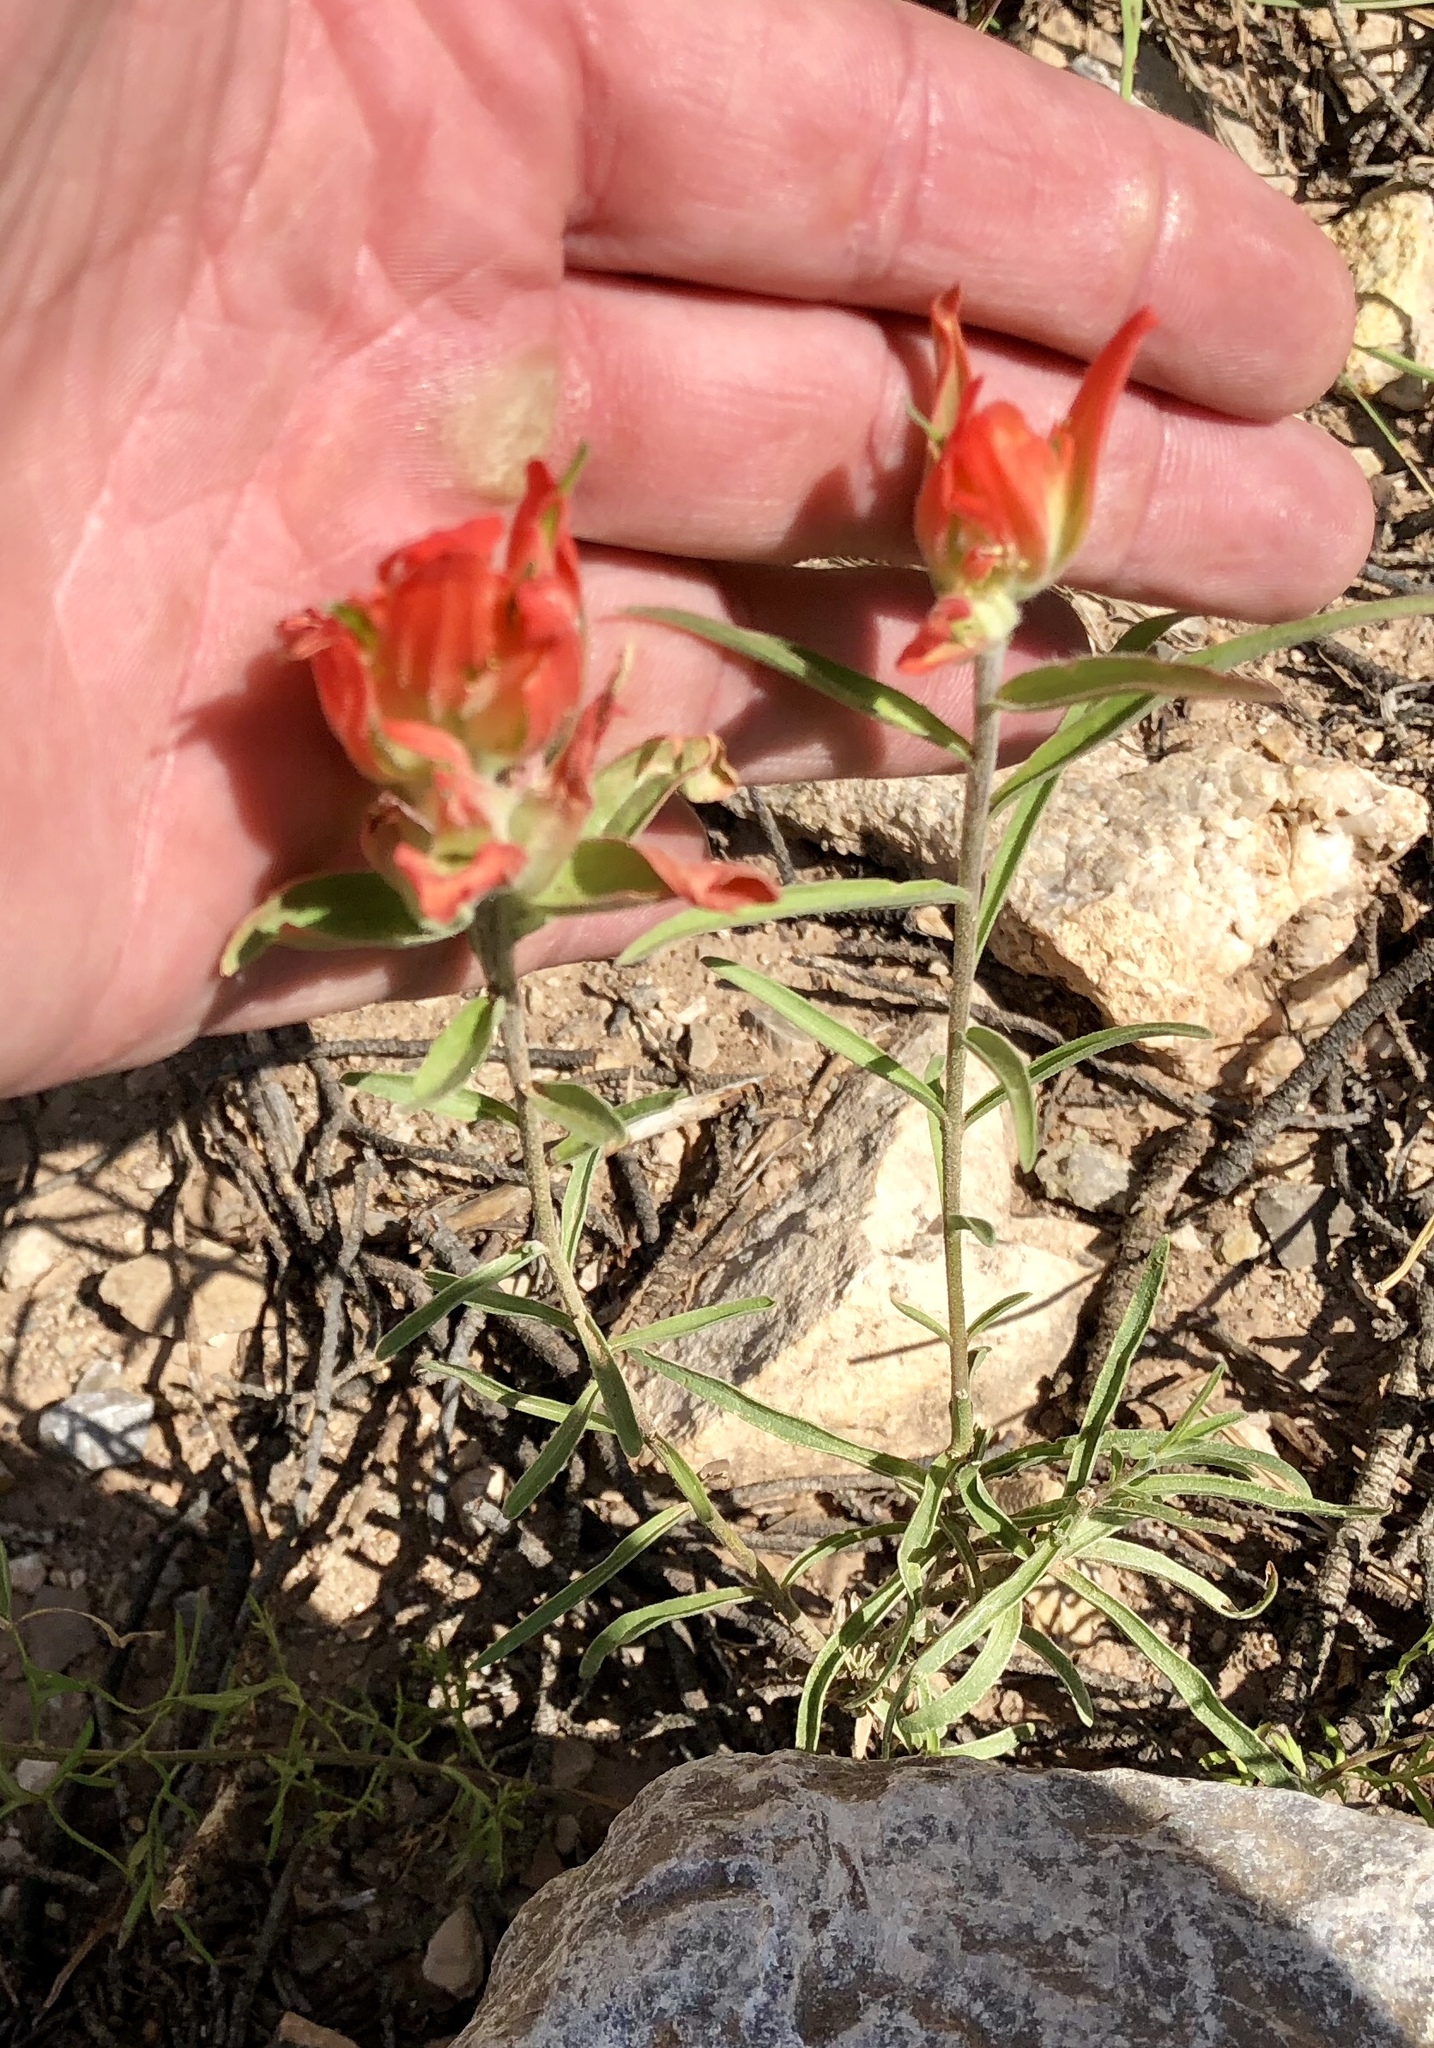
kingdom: Plantae
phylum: Tracheophyta
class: Magnoliopsida
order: Lamiales
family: Orobanchaceae
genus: Castilleja
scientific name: Castilleja integra
